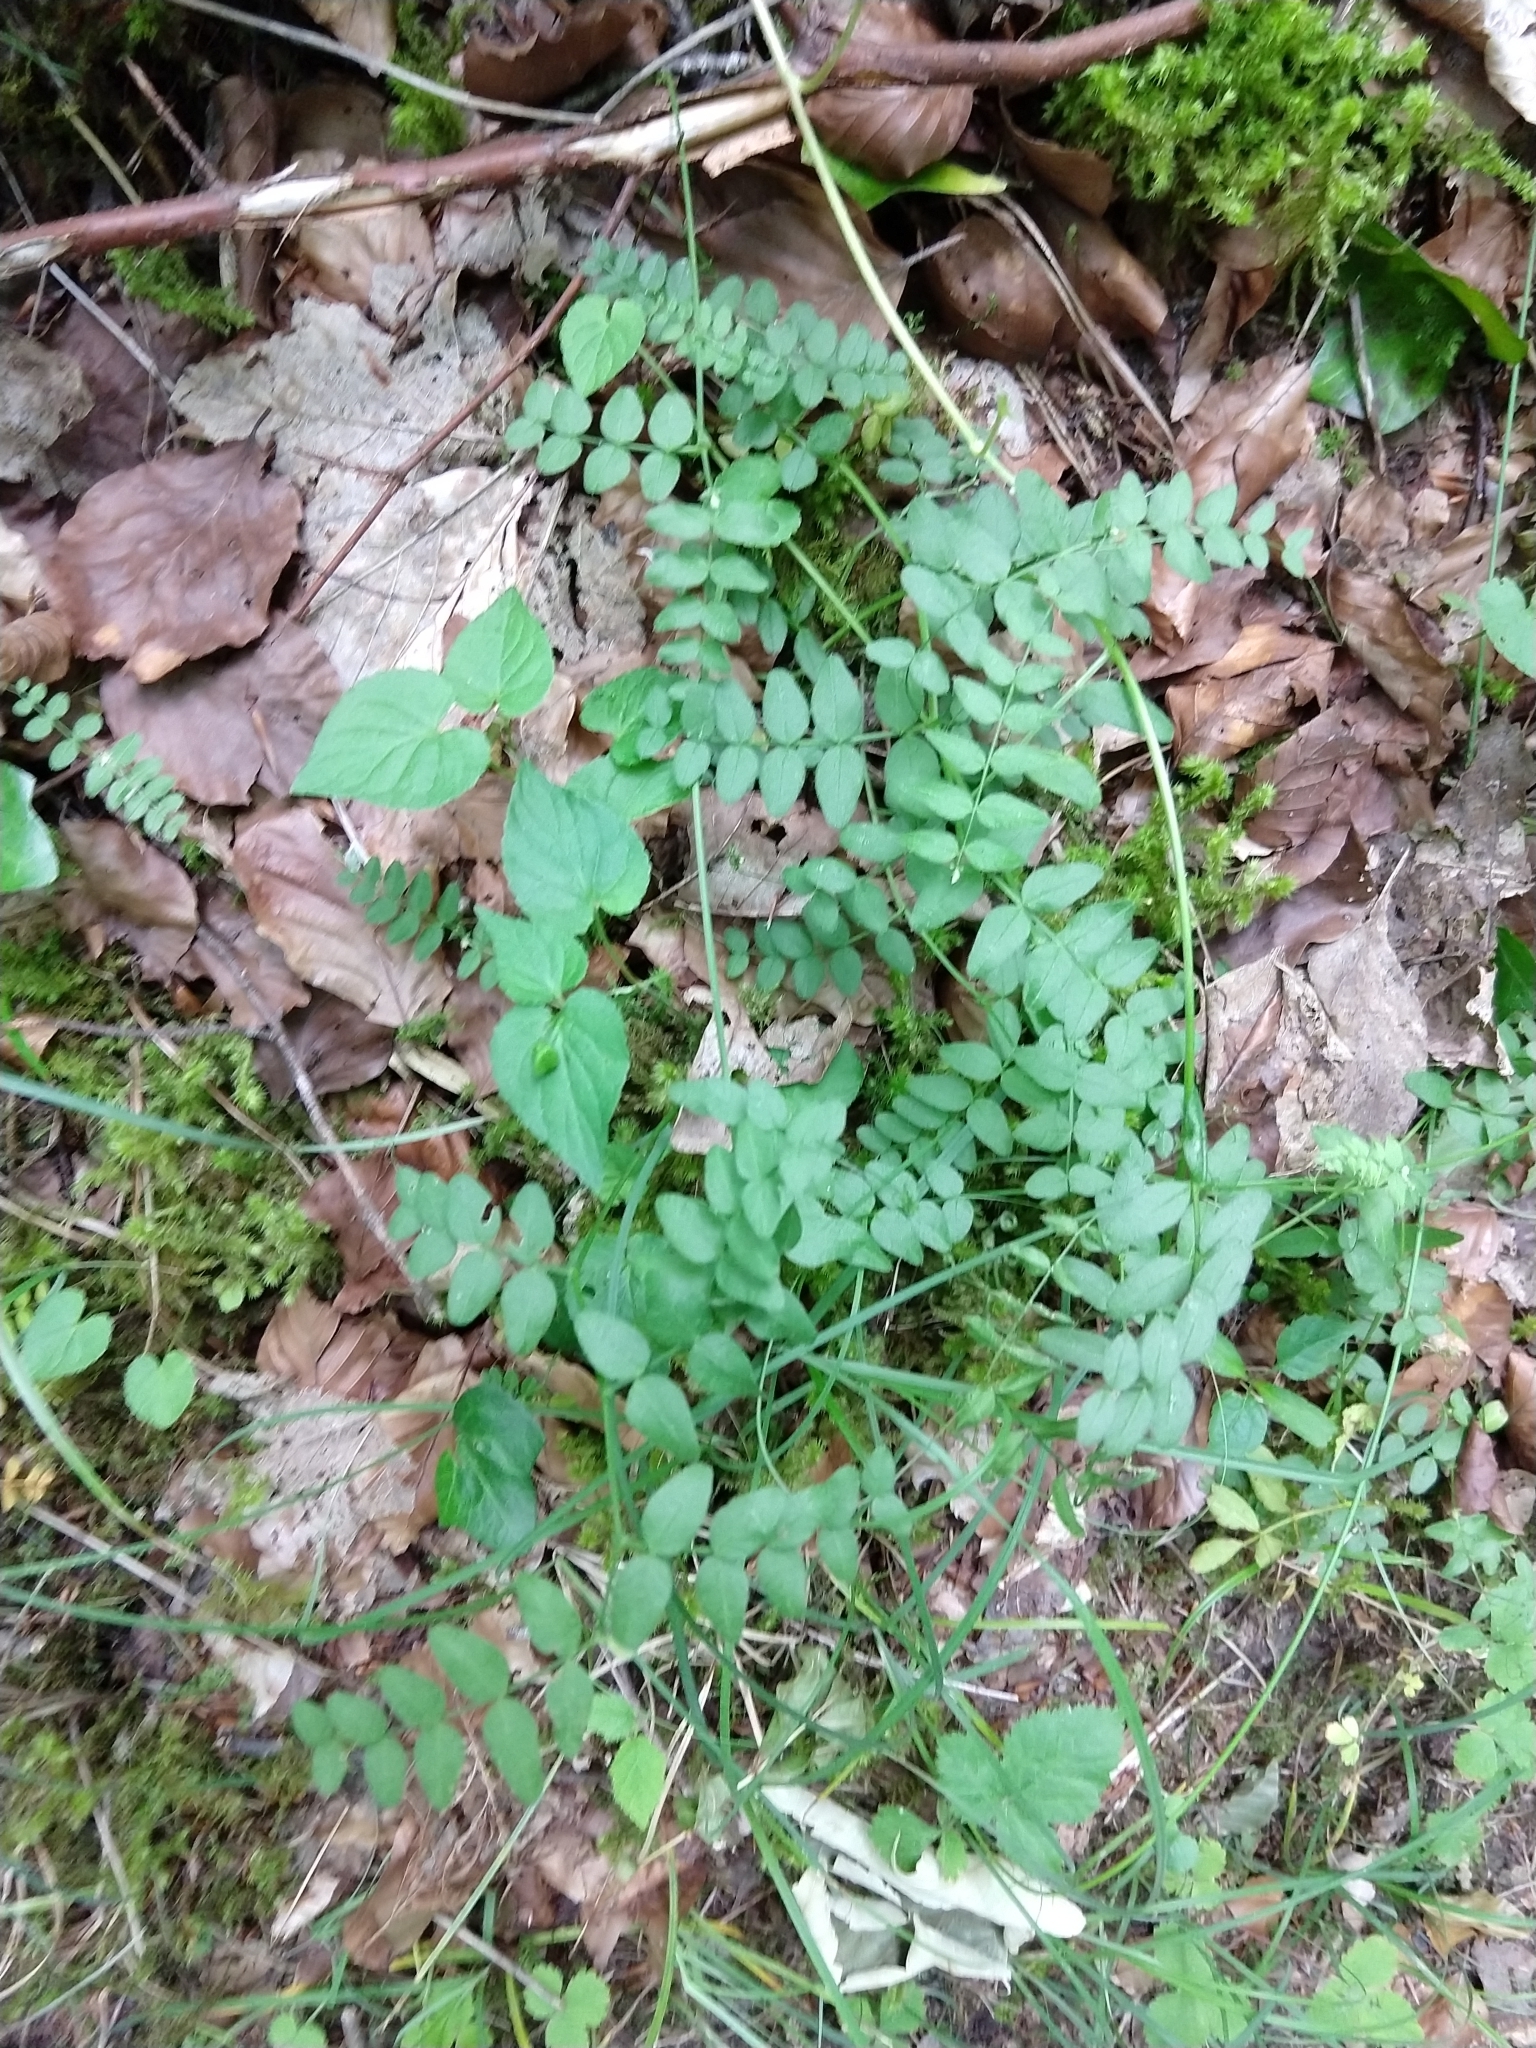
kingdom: Plantae
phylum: Tracheophyta
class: Magnoliopsida
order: Fabales
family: Fabaceae
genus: Vicia
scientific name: Vicia sepium
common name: Bush vetch
